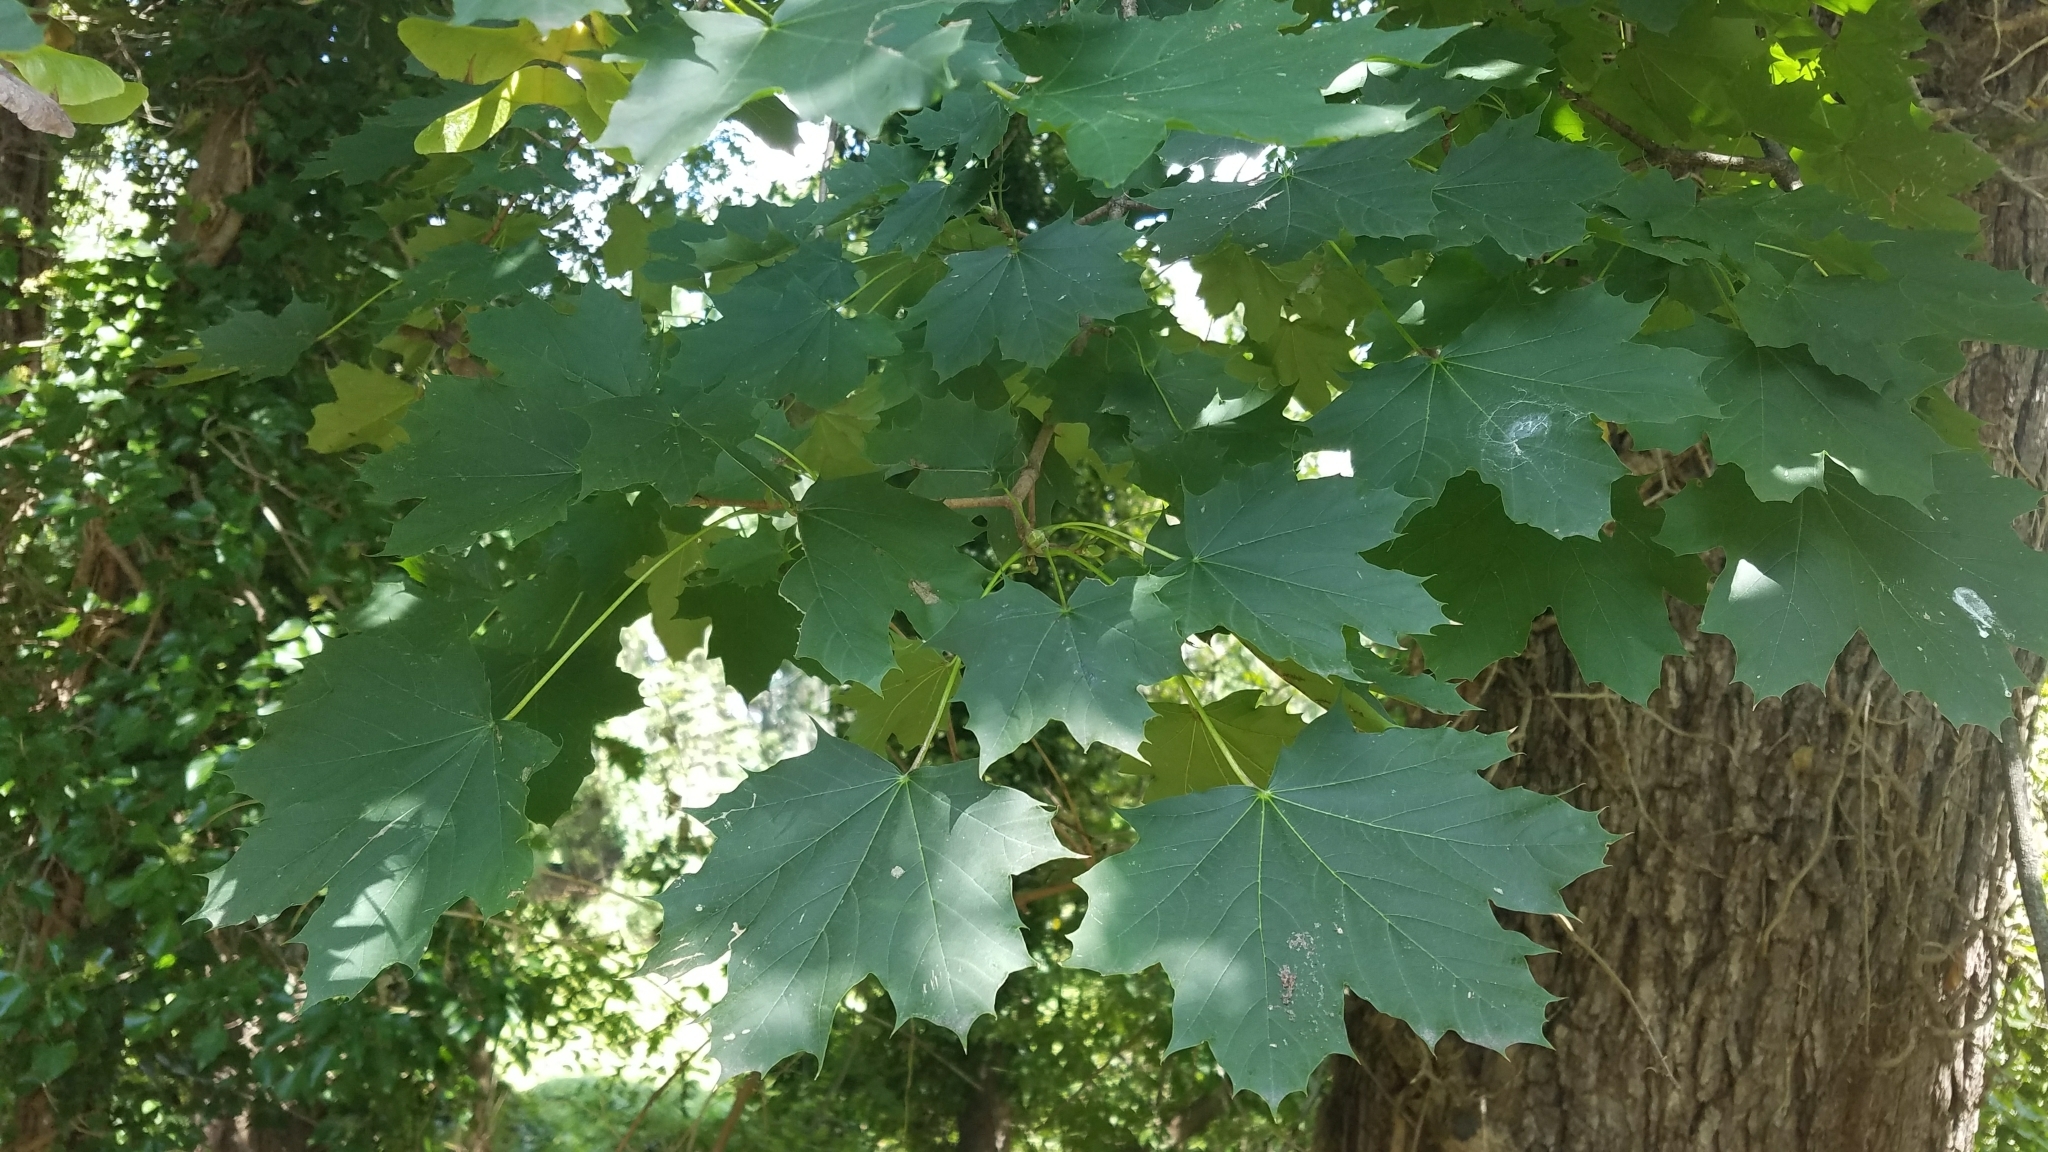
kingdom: Plantae
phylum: Tracheophyta
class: Magnoliopsida
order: Sapindales
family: Sapindaceae
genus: Acer
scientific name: Acer platanoides
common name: Norway maple
